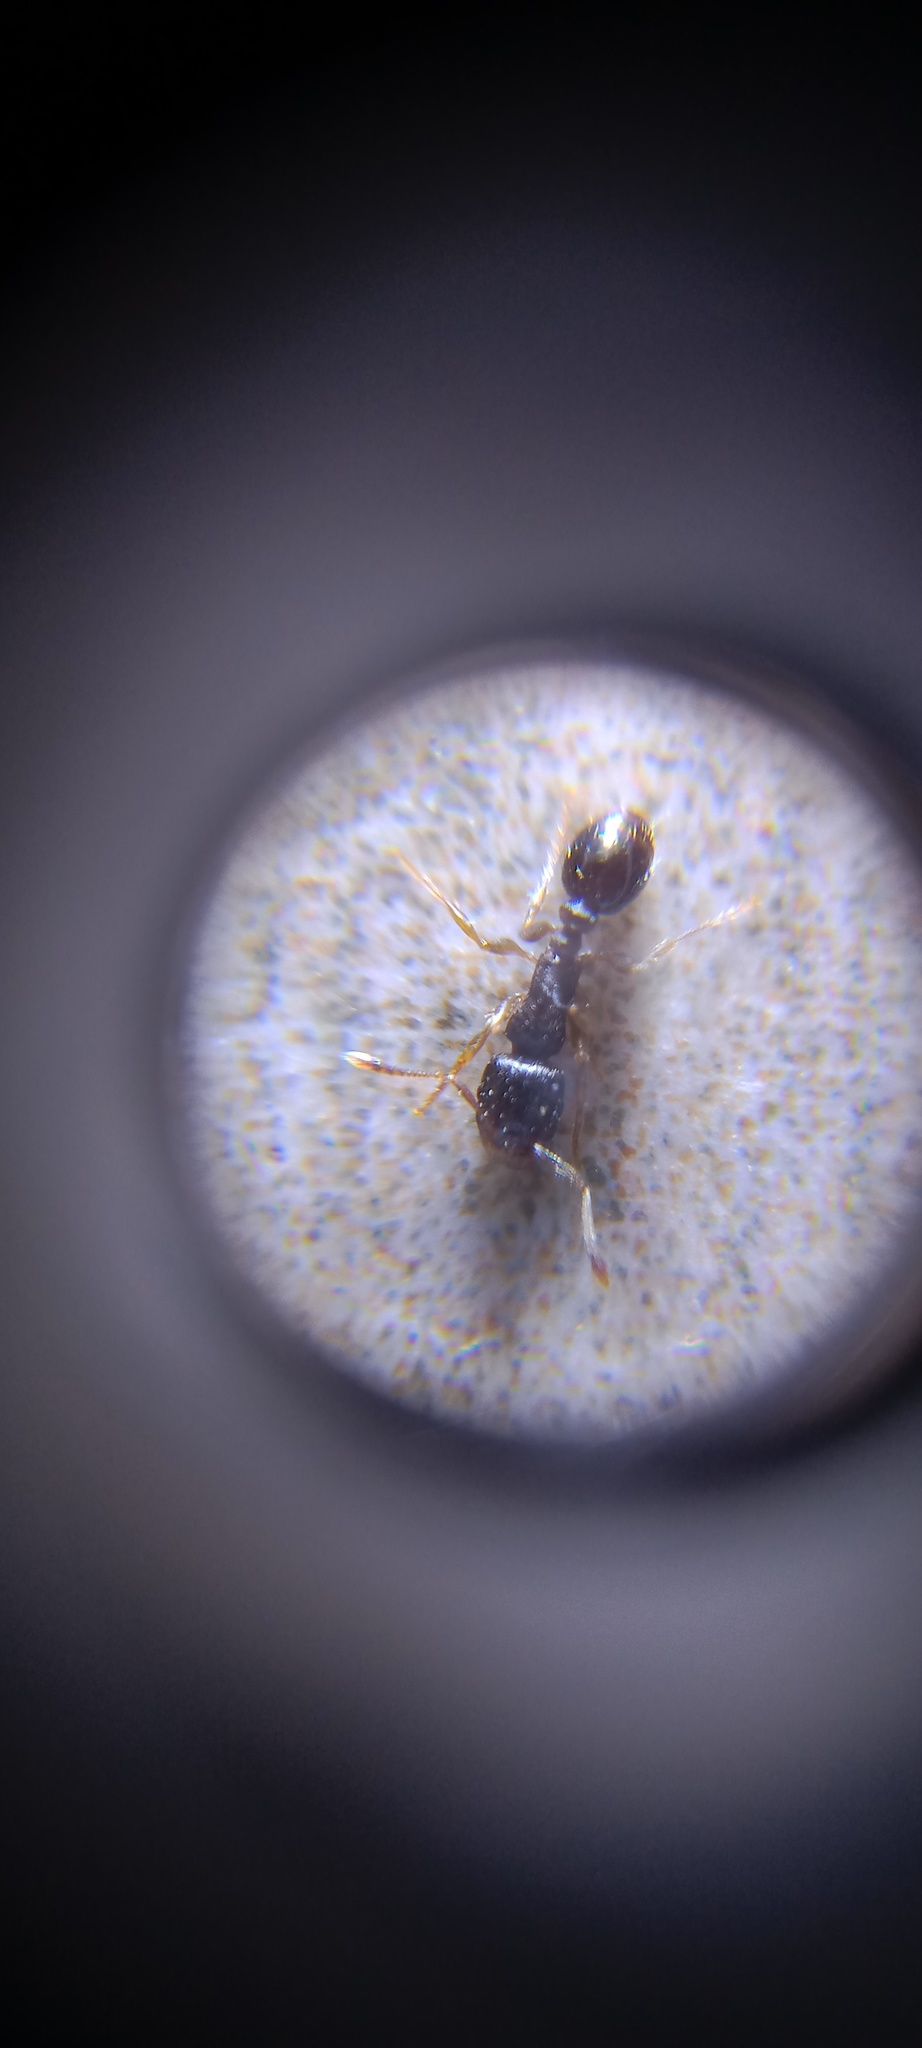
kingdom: Animalia
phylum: Arthropoda
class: Insecta
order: Hymenoptera
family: Formicidae
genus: Tetramorium
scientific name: Tetramorium immigrans
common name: Pavement ant
